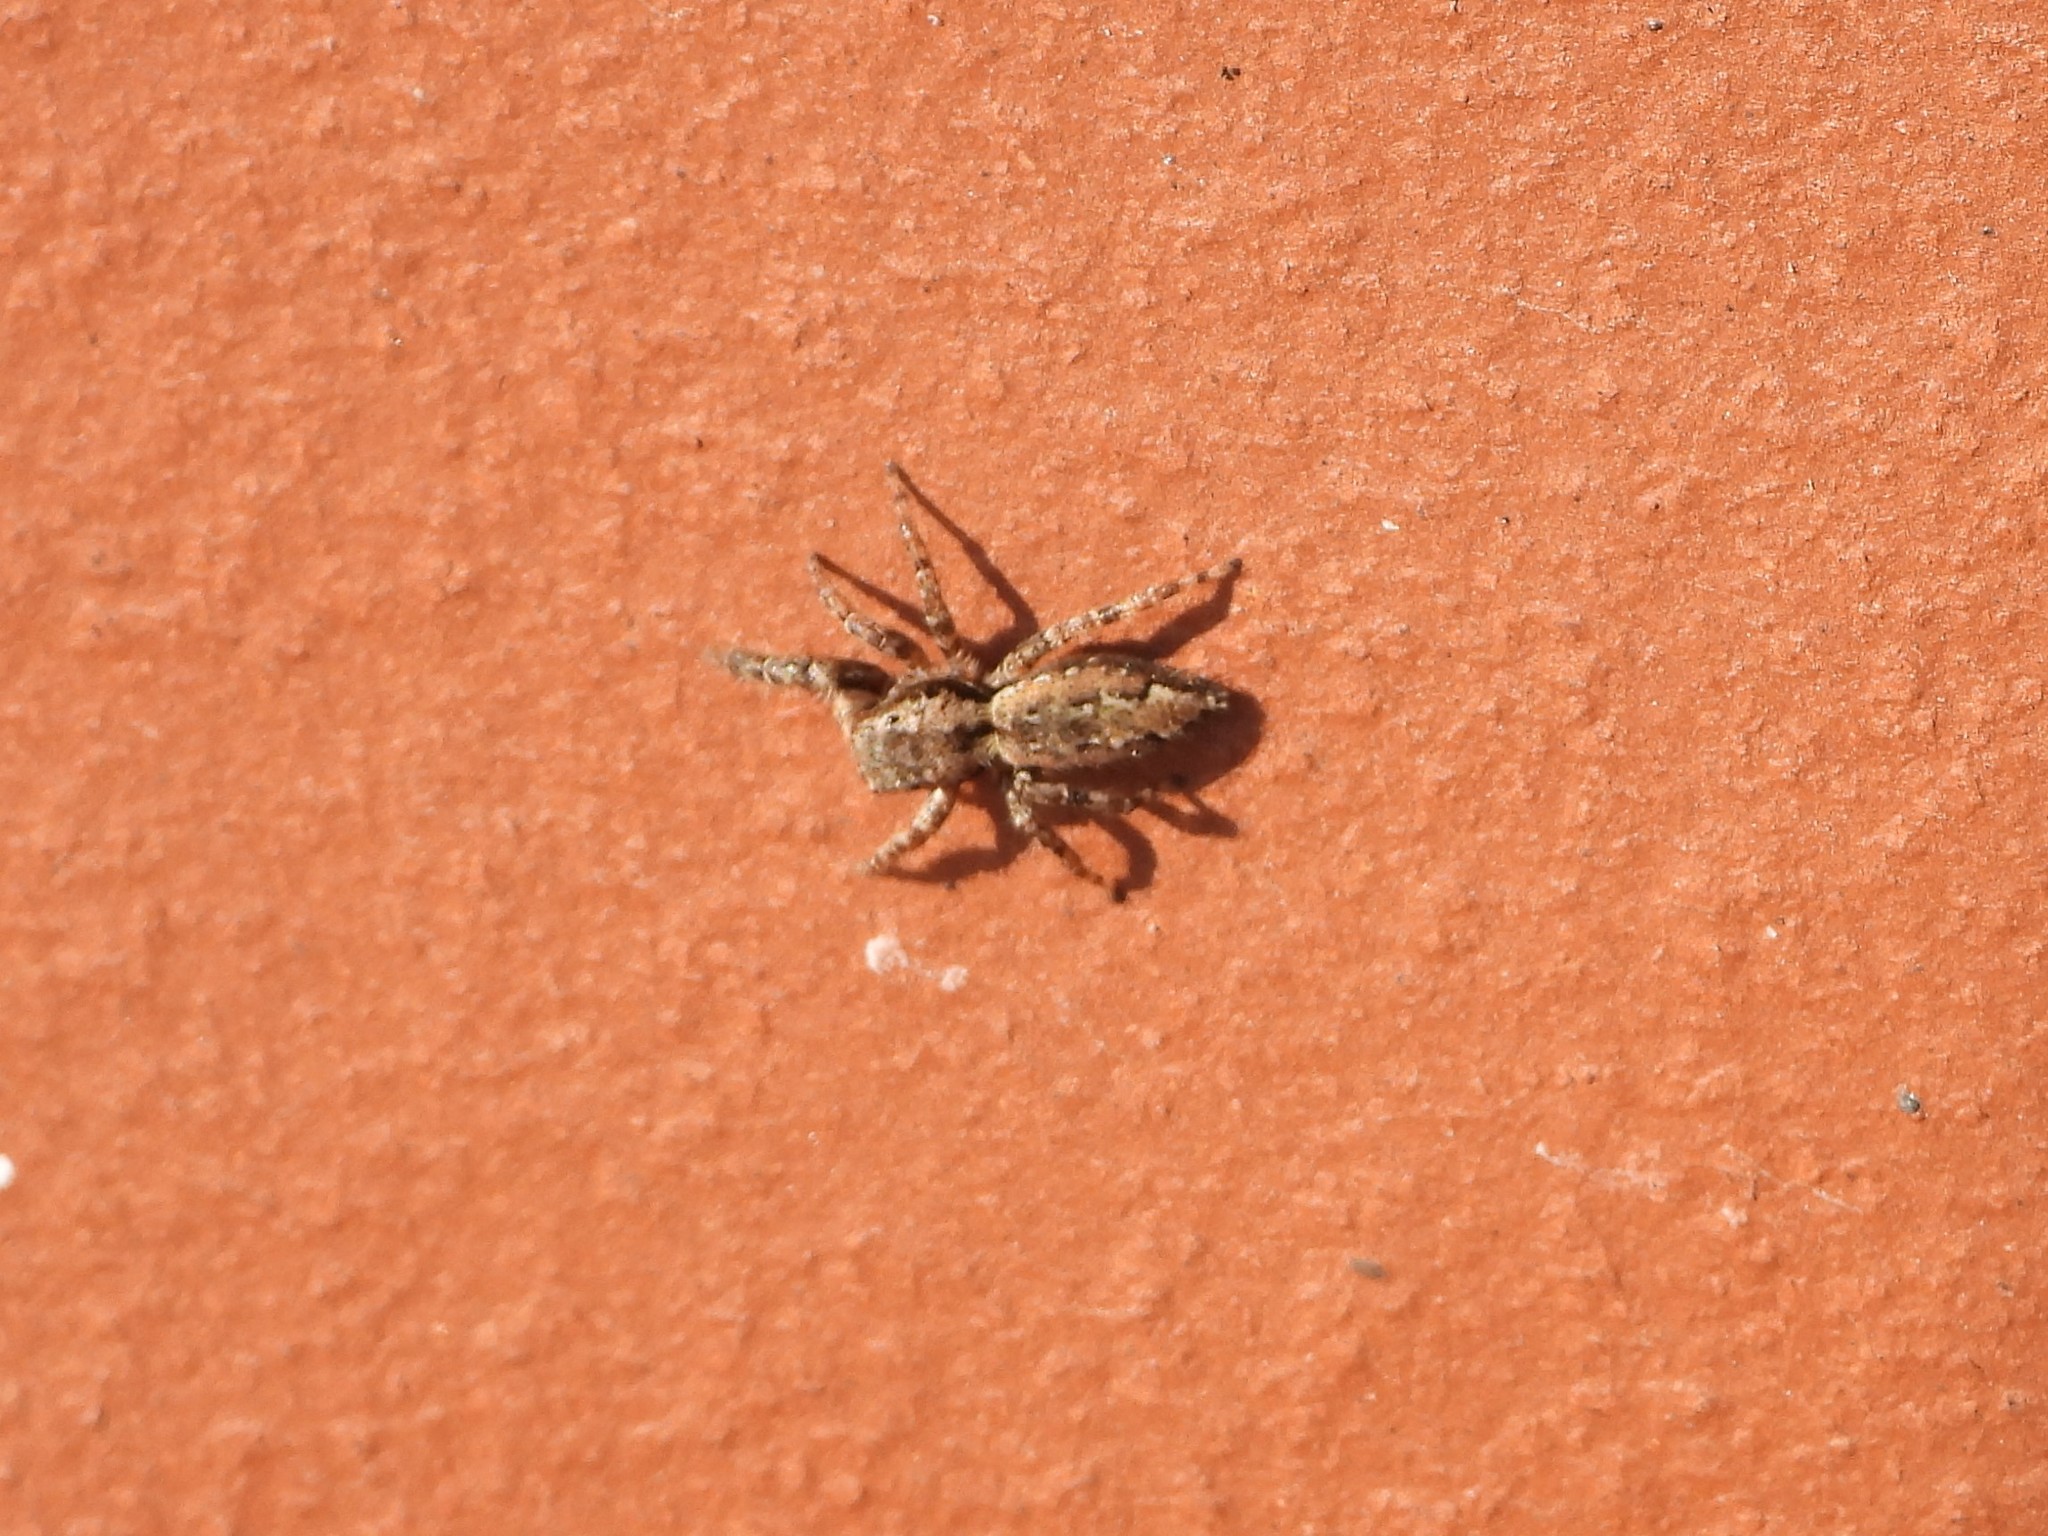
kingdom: Animalia
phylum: Arthropoda
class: Arachnida
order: Araneae
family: Salticidae
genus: Marpissa
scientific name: Marpissa muscosa
